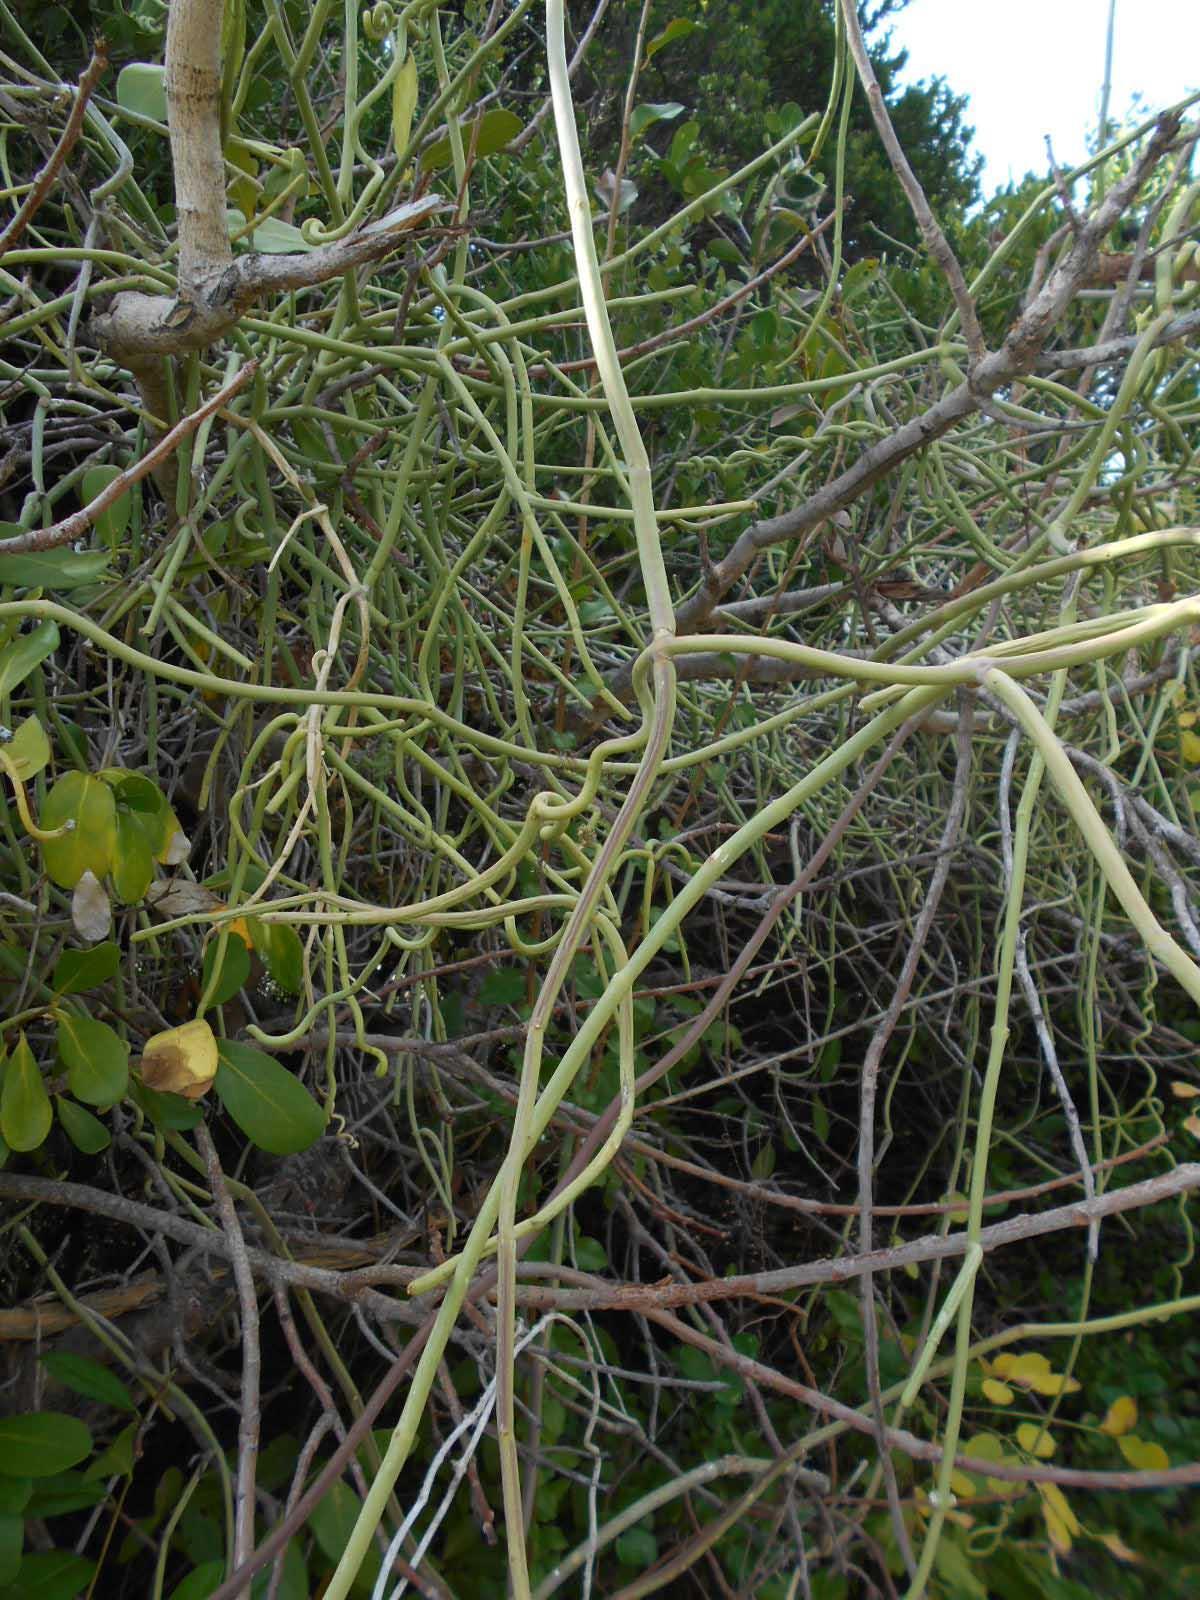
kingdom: Plantae
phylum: Tracheophyta
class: Magnoliopsida
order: Gentianales
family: Apocynaceae
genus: Cynanchum
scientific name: Cynanchum viminale
